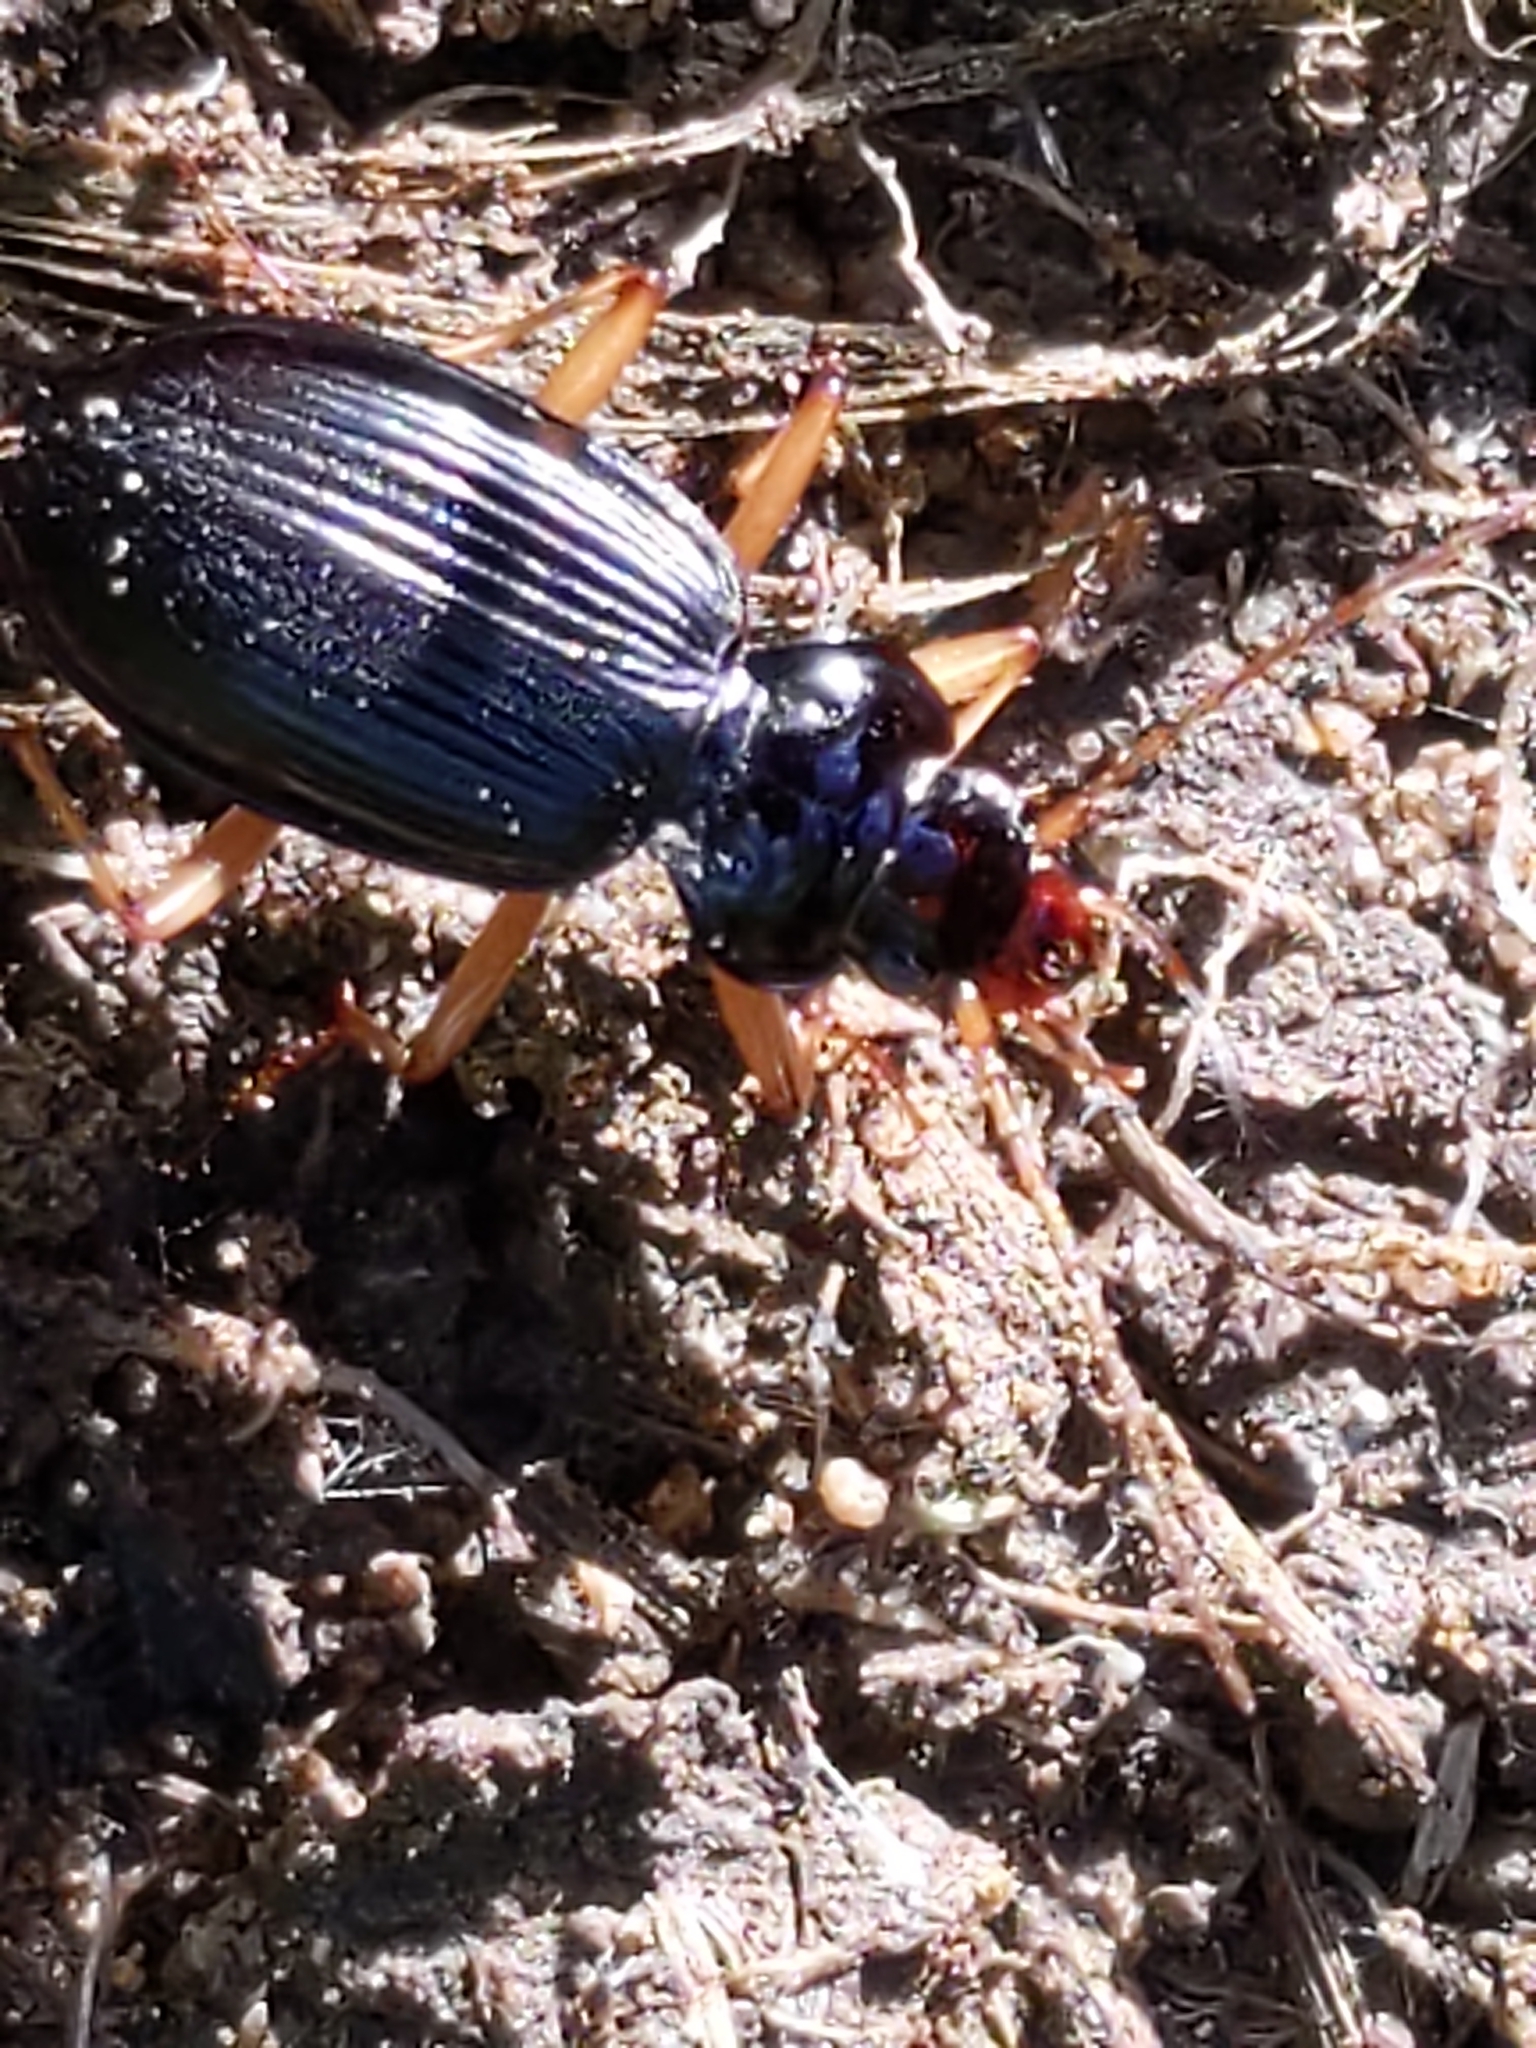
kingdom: Animalia
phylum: Arthropoda
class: Insecta
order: Coleoptera
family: Carabidae
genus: Nebria
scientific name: Nebria pallipes
